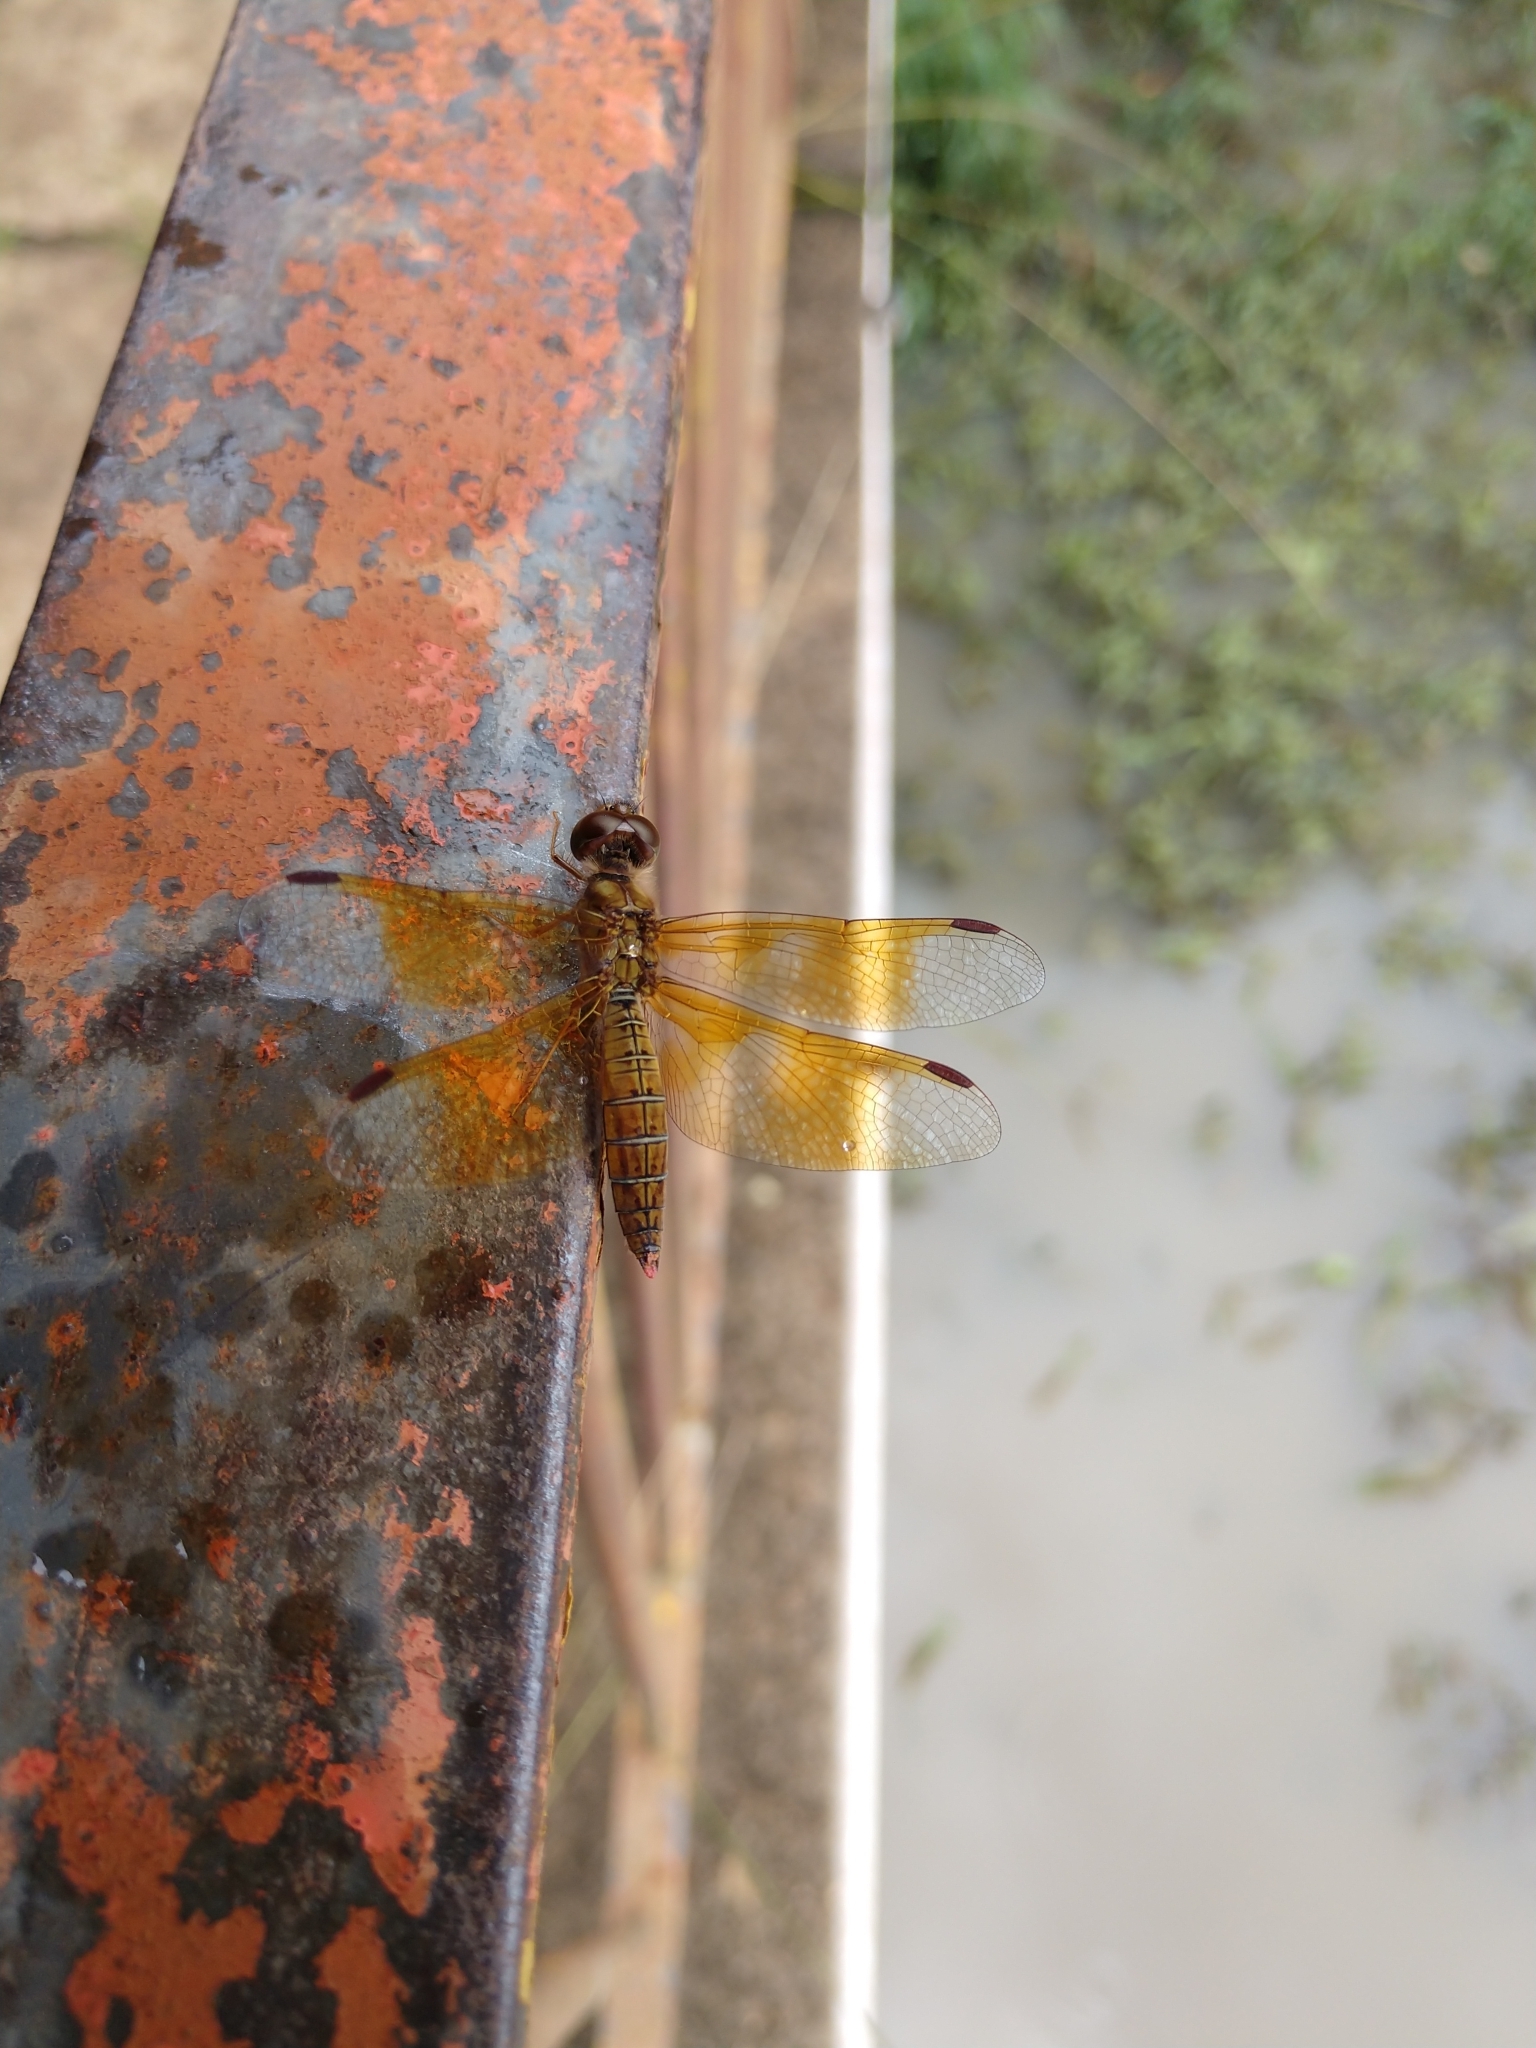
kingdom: Animalia
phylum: Arthropoda
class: Insecta
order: Odonata
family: Libellulidae
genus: Perithemis
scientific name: Perithemis tenera
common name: Eastern amberwing
